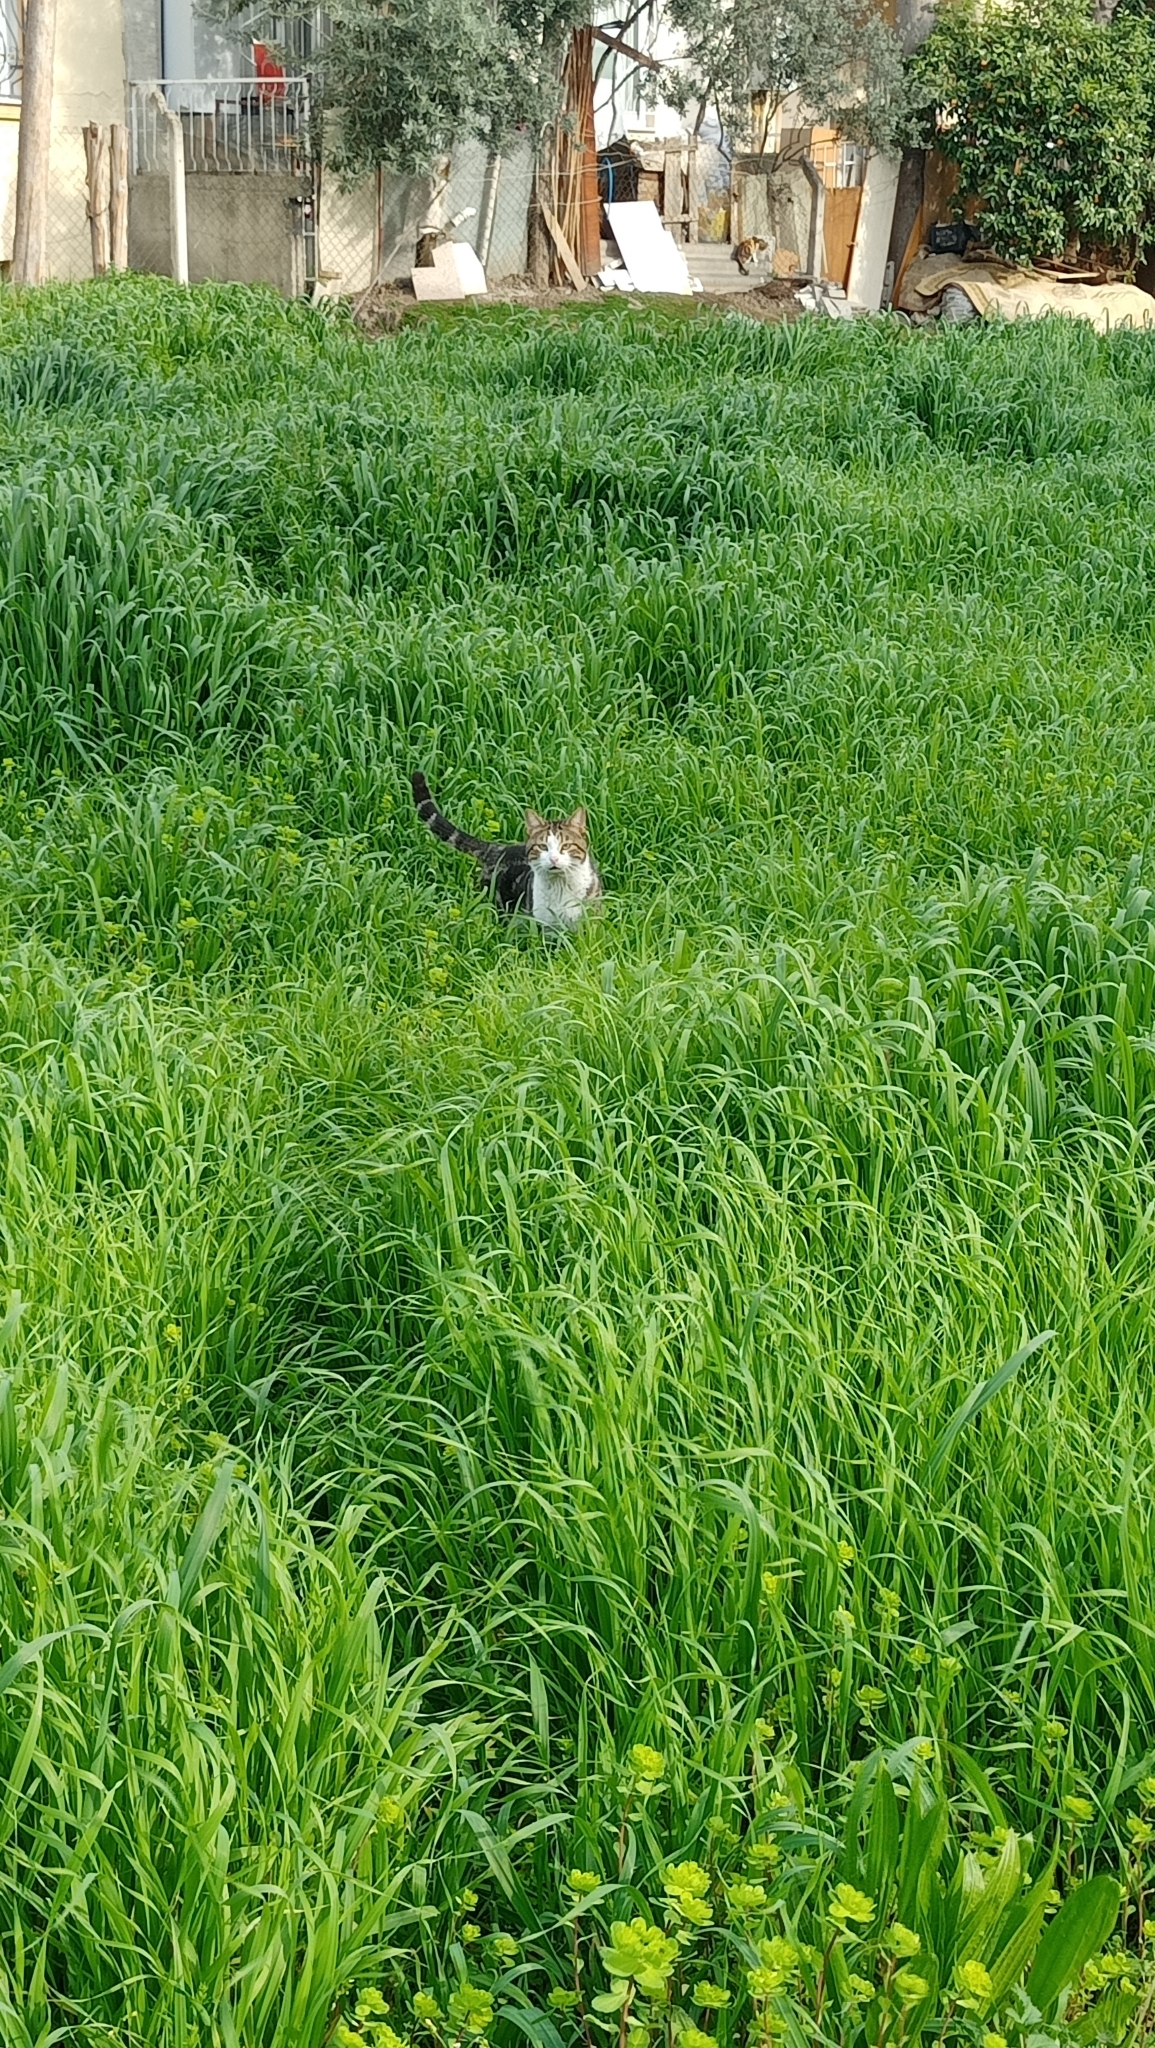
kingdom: Animalia
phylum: Chordata
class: Mammalia
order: Carnivora
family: Felidae
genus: Felis
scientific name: Felis catus
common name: Domestic cat
